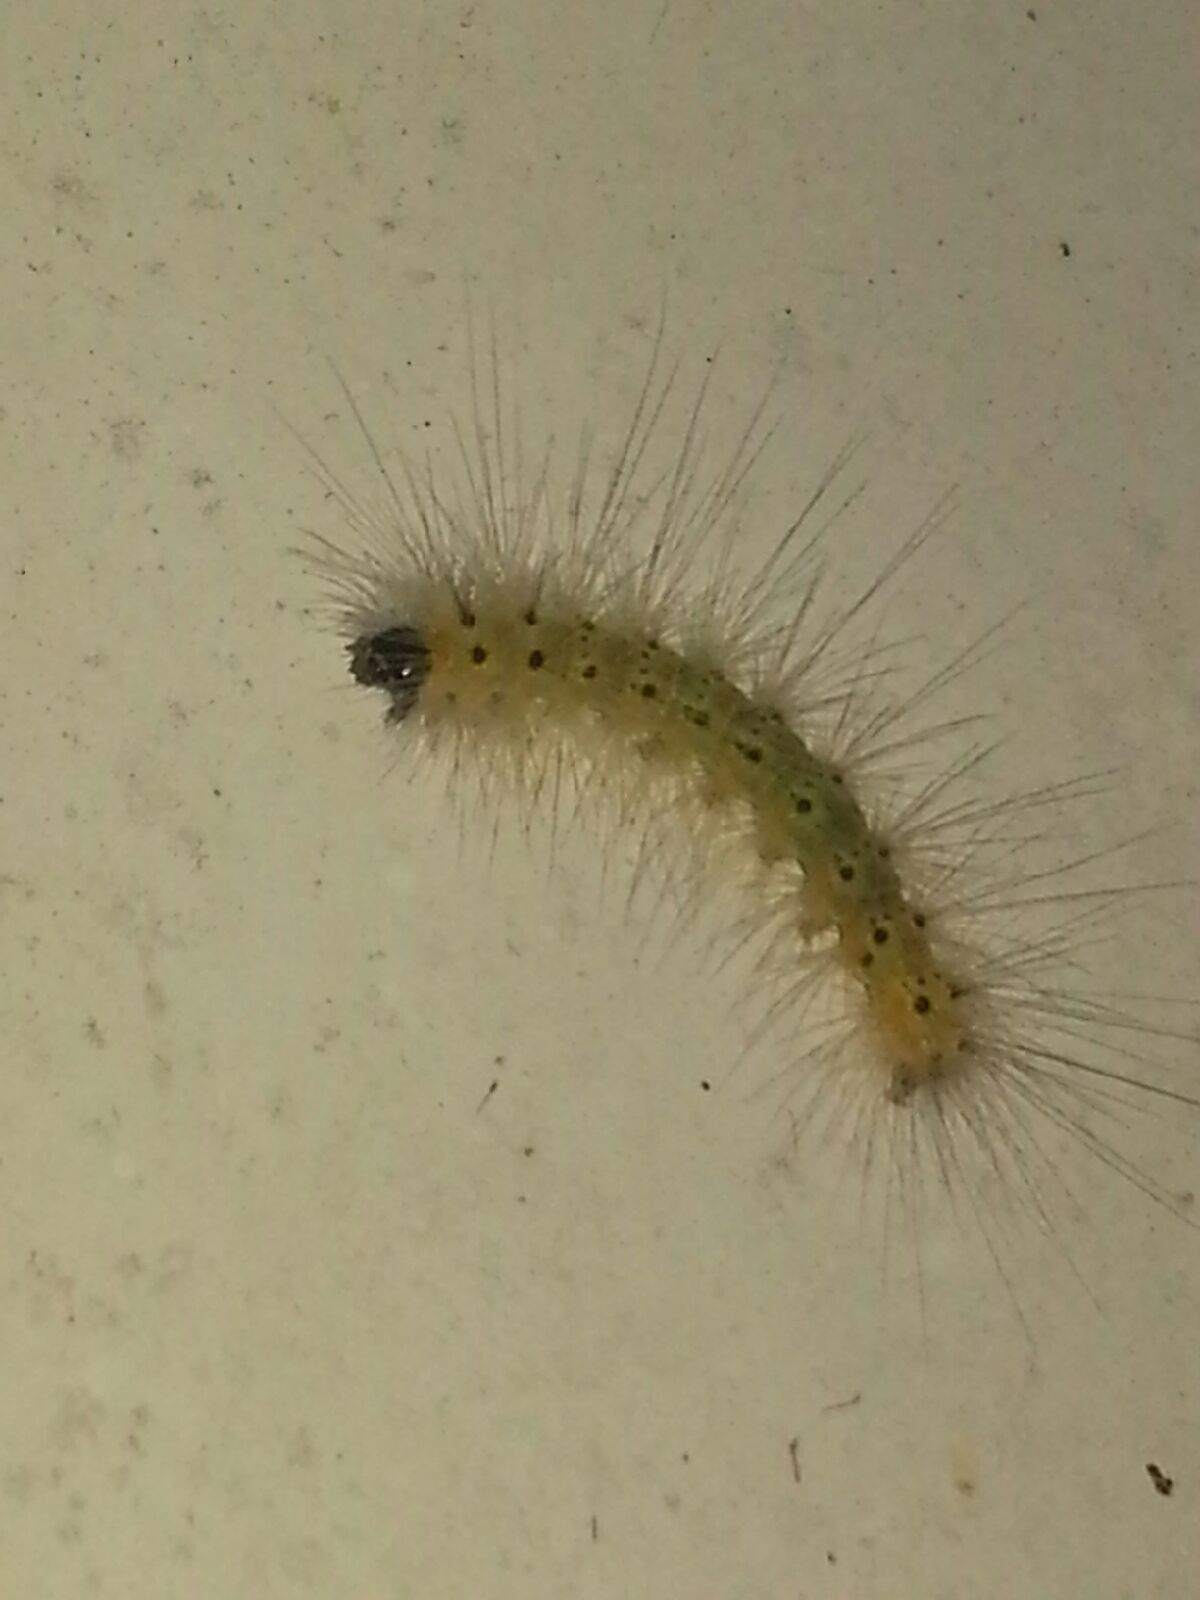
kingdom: Animalia
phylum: Arthropoda
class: Insecta
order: Lepidoptera
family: Erebidae
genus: Hyphantria
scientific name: Hyphantria cunea
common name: American white moth
